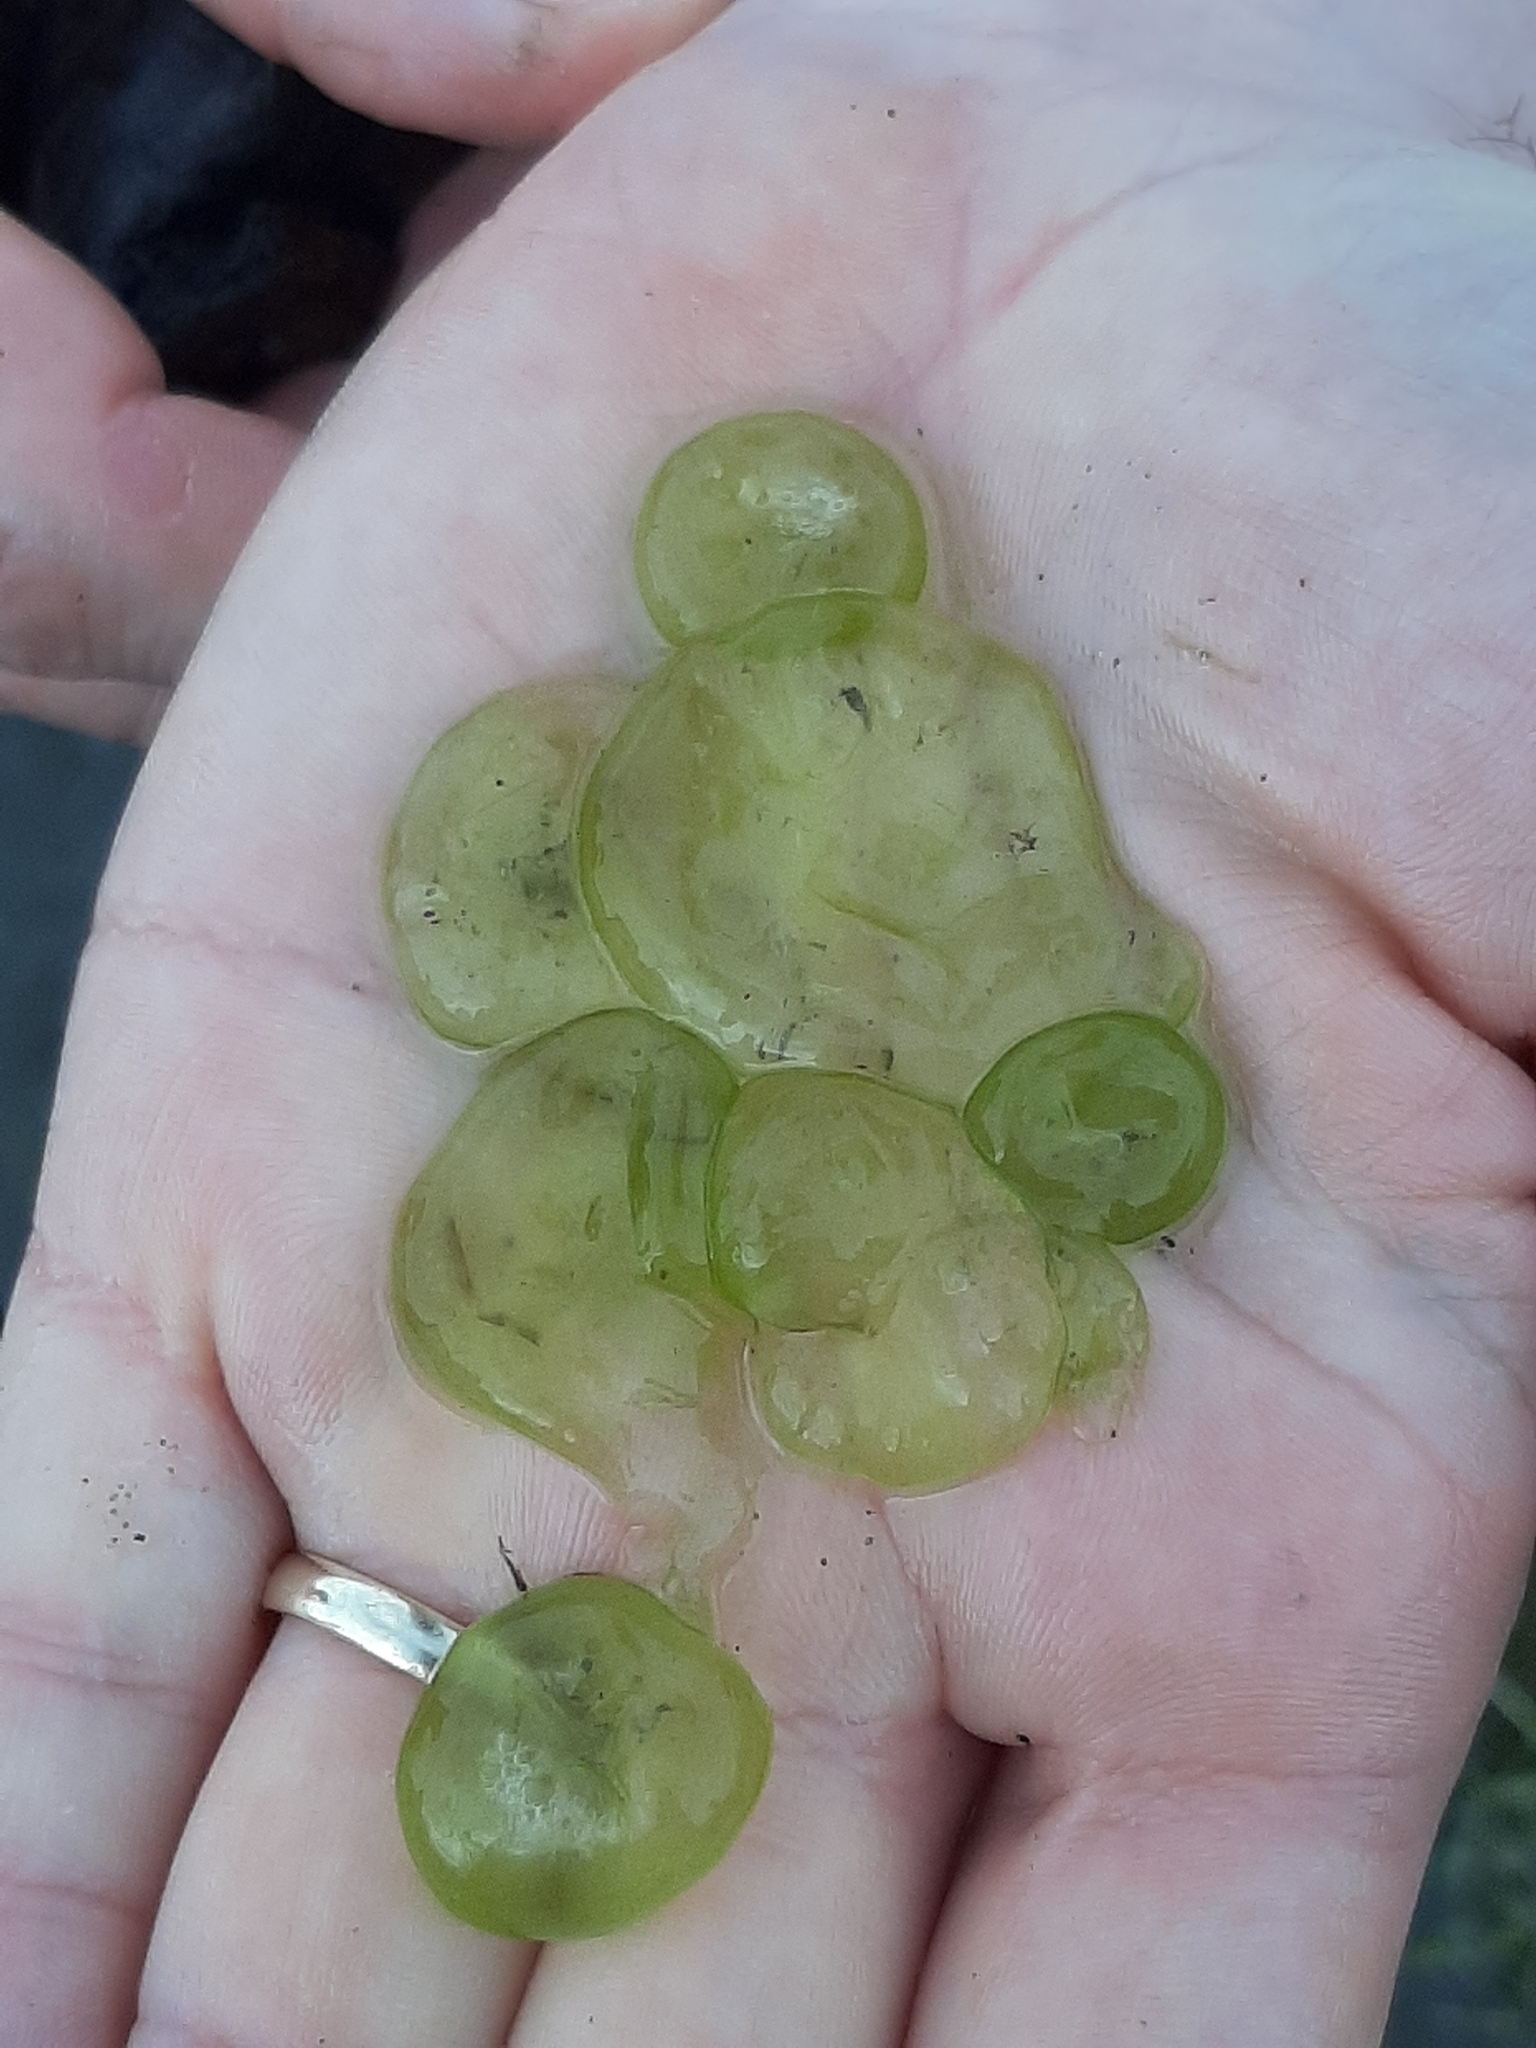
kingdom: Chromista
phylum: Ciliophora
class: Oligohymenophorea
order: Peritrichida
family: Ophrydiidae
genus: Ophrydium
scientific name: Ophrydium
